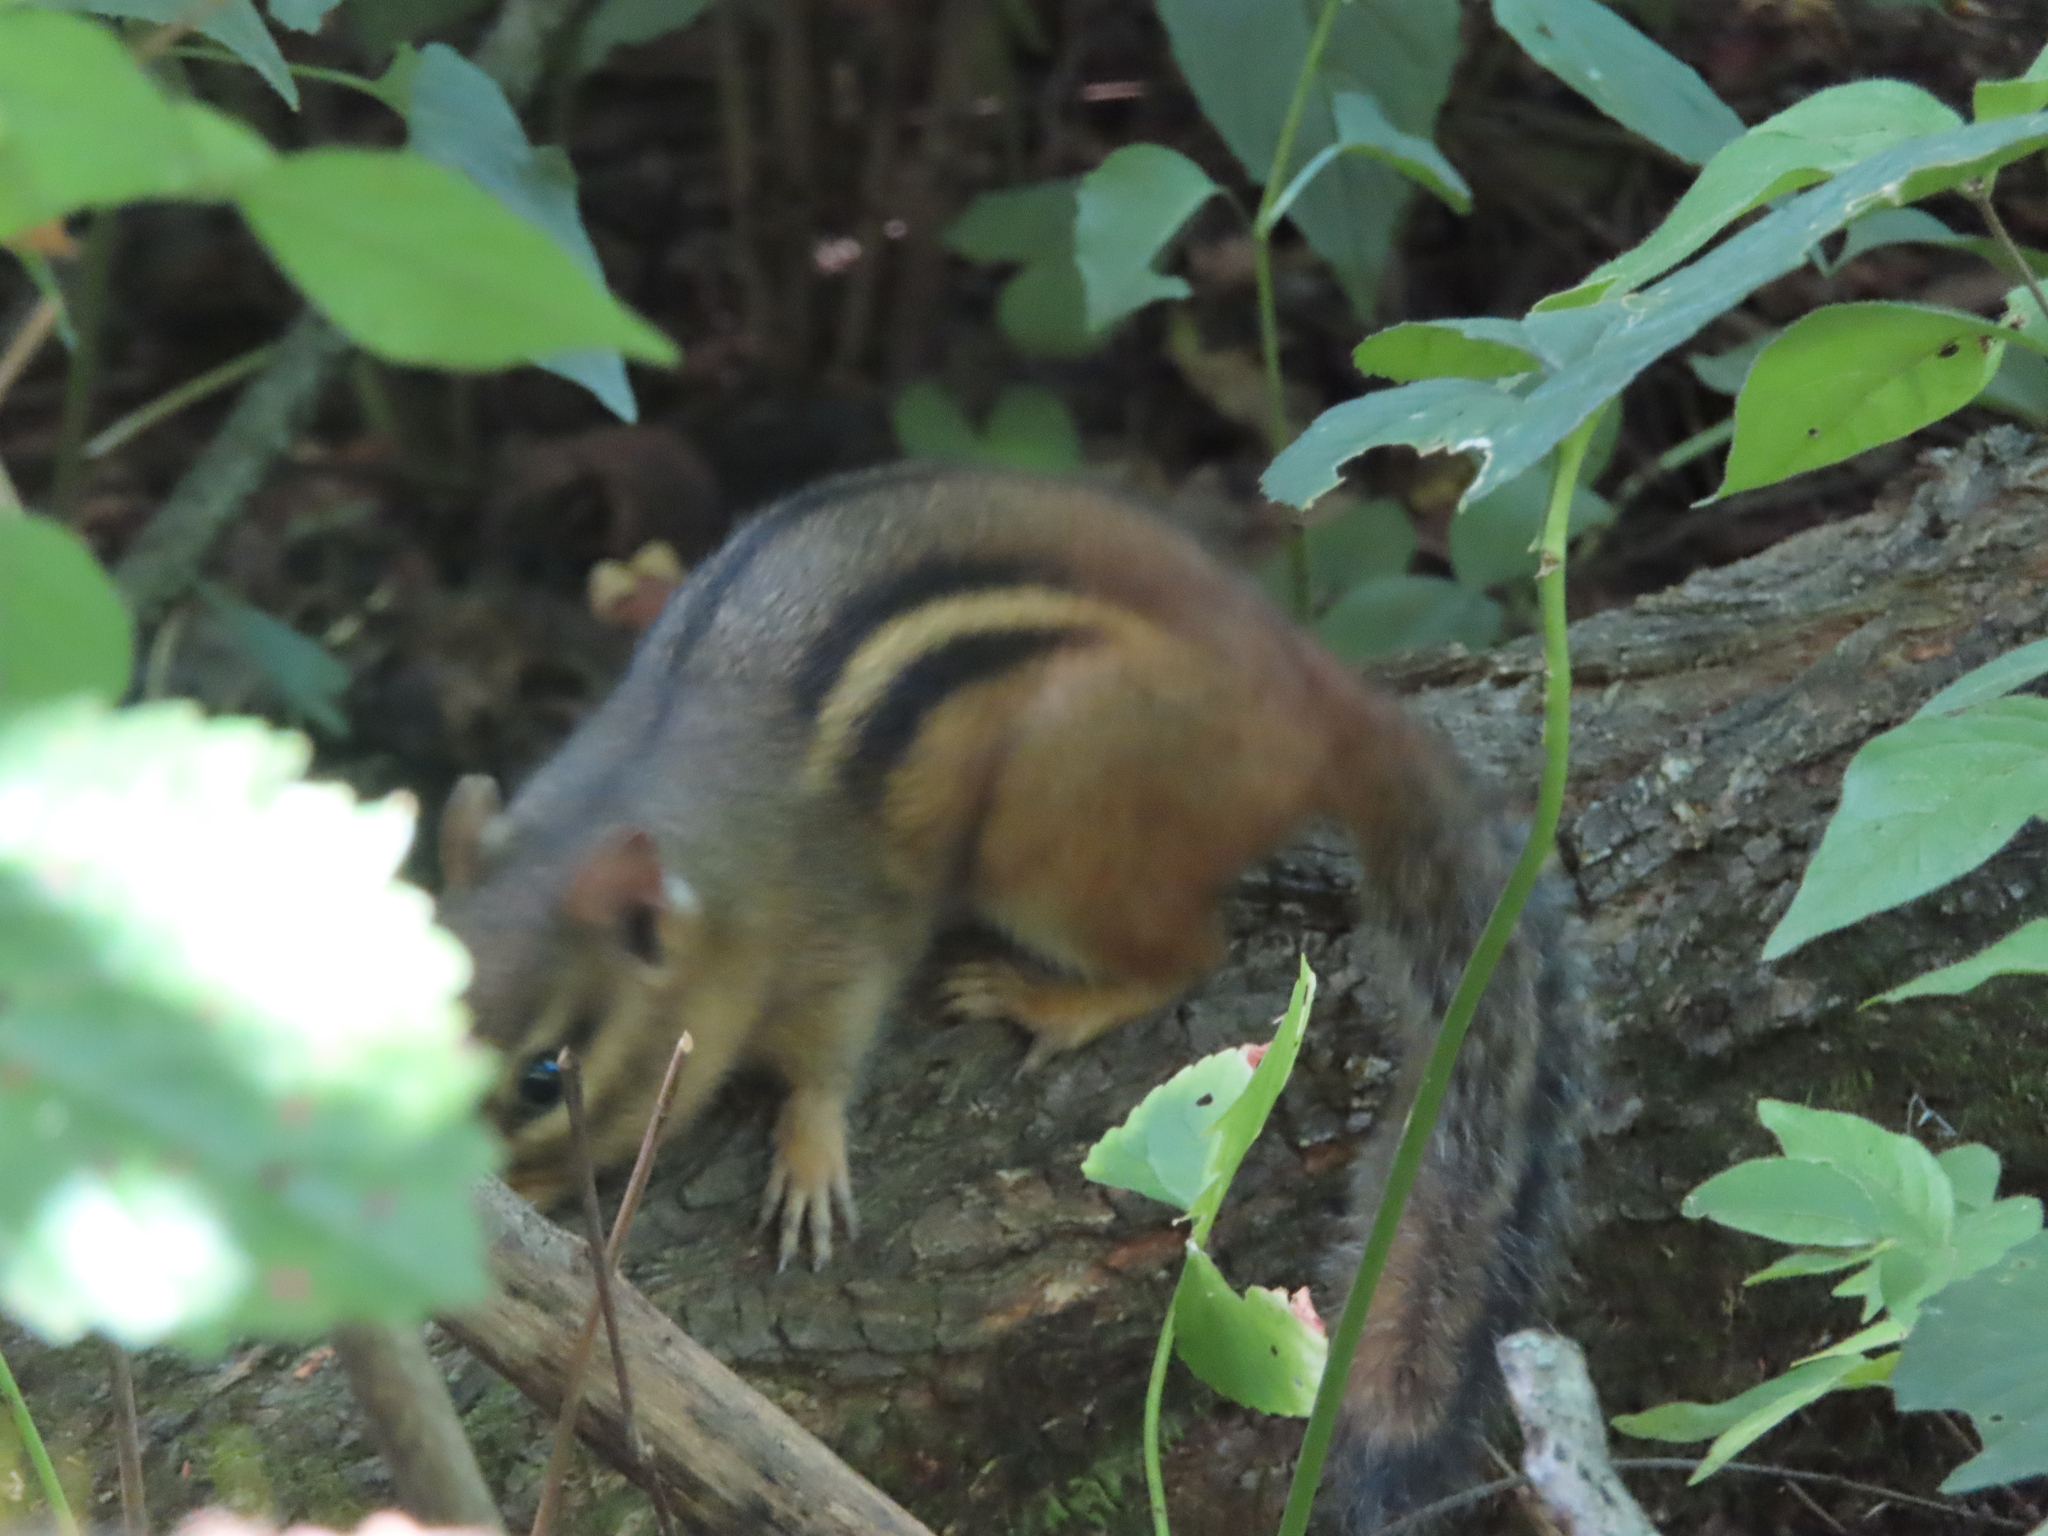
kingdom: Animalia
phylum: Chordata
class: Mammalia
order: Rodentia
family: Sciuridae
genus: Tamias
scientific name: Tamias striatus
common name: Eastern chipmunk
